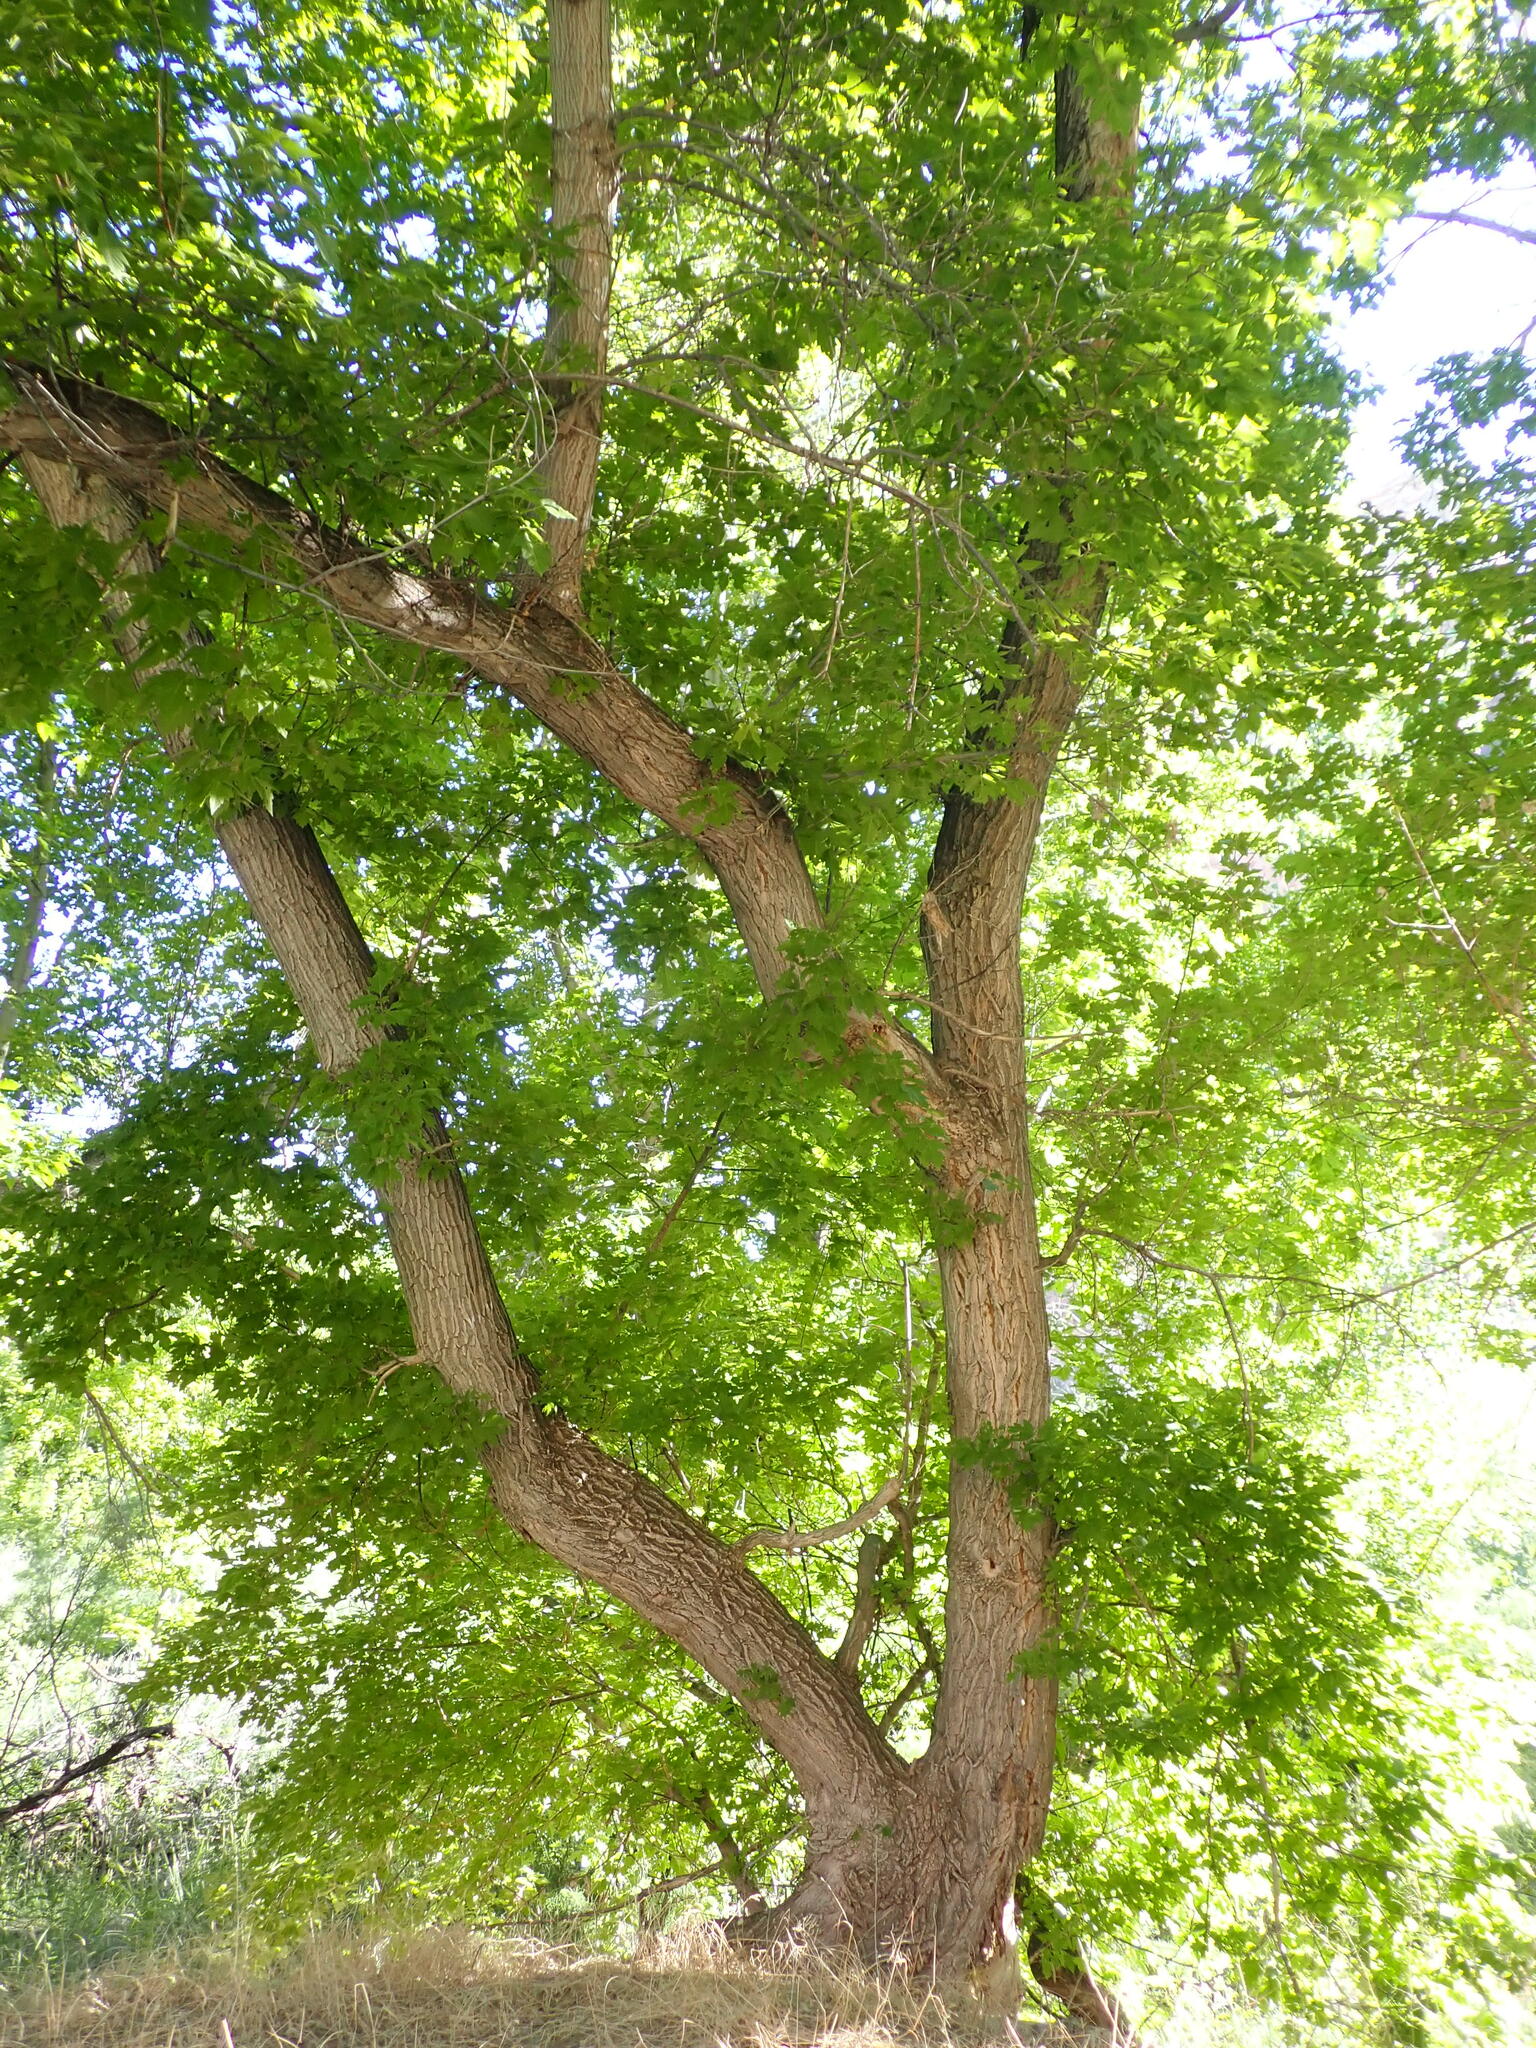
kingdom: Plantae
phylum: Tracheophyta
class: Magnoliopsida
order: Sapindales
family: Sapindaceae
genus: Acer
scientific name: Acer negundo
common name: Ashleaf maple
